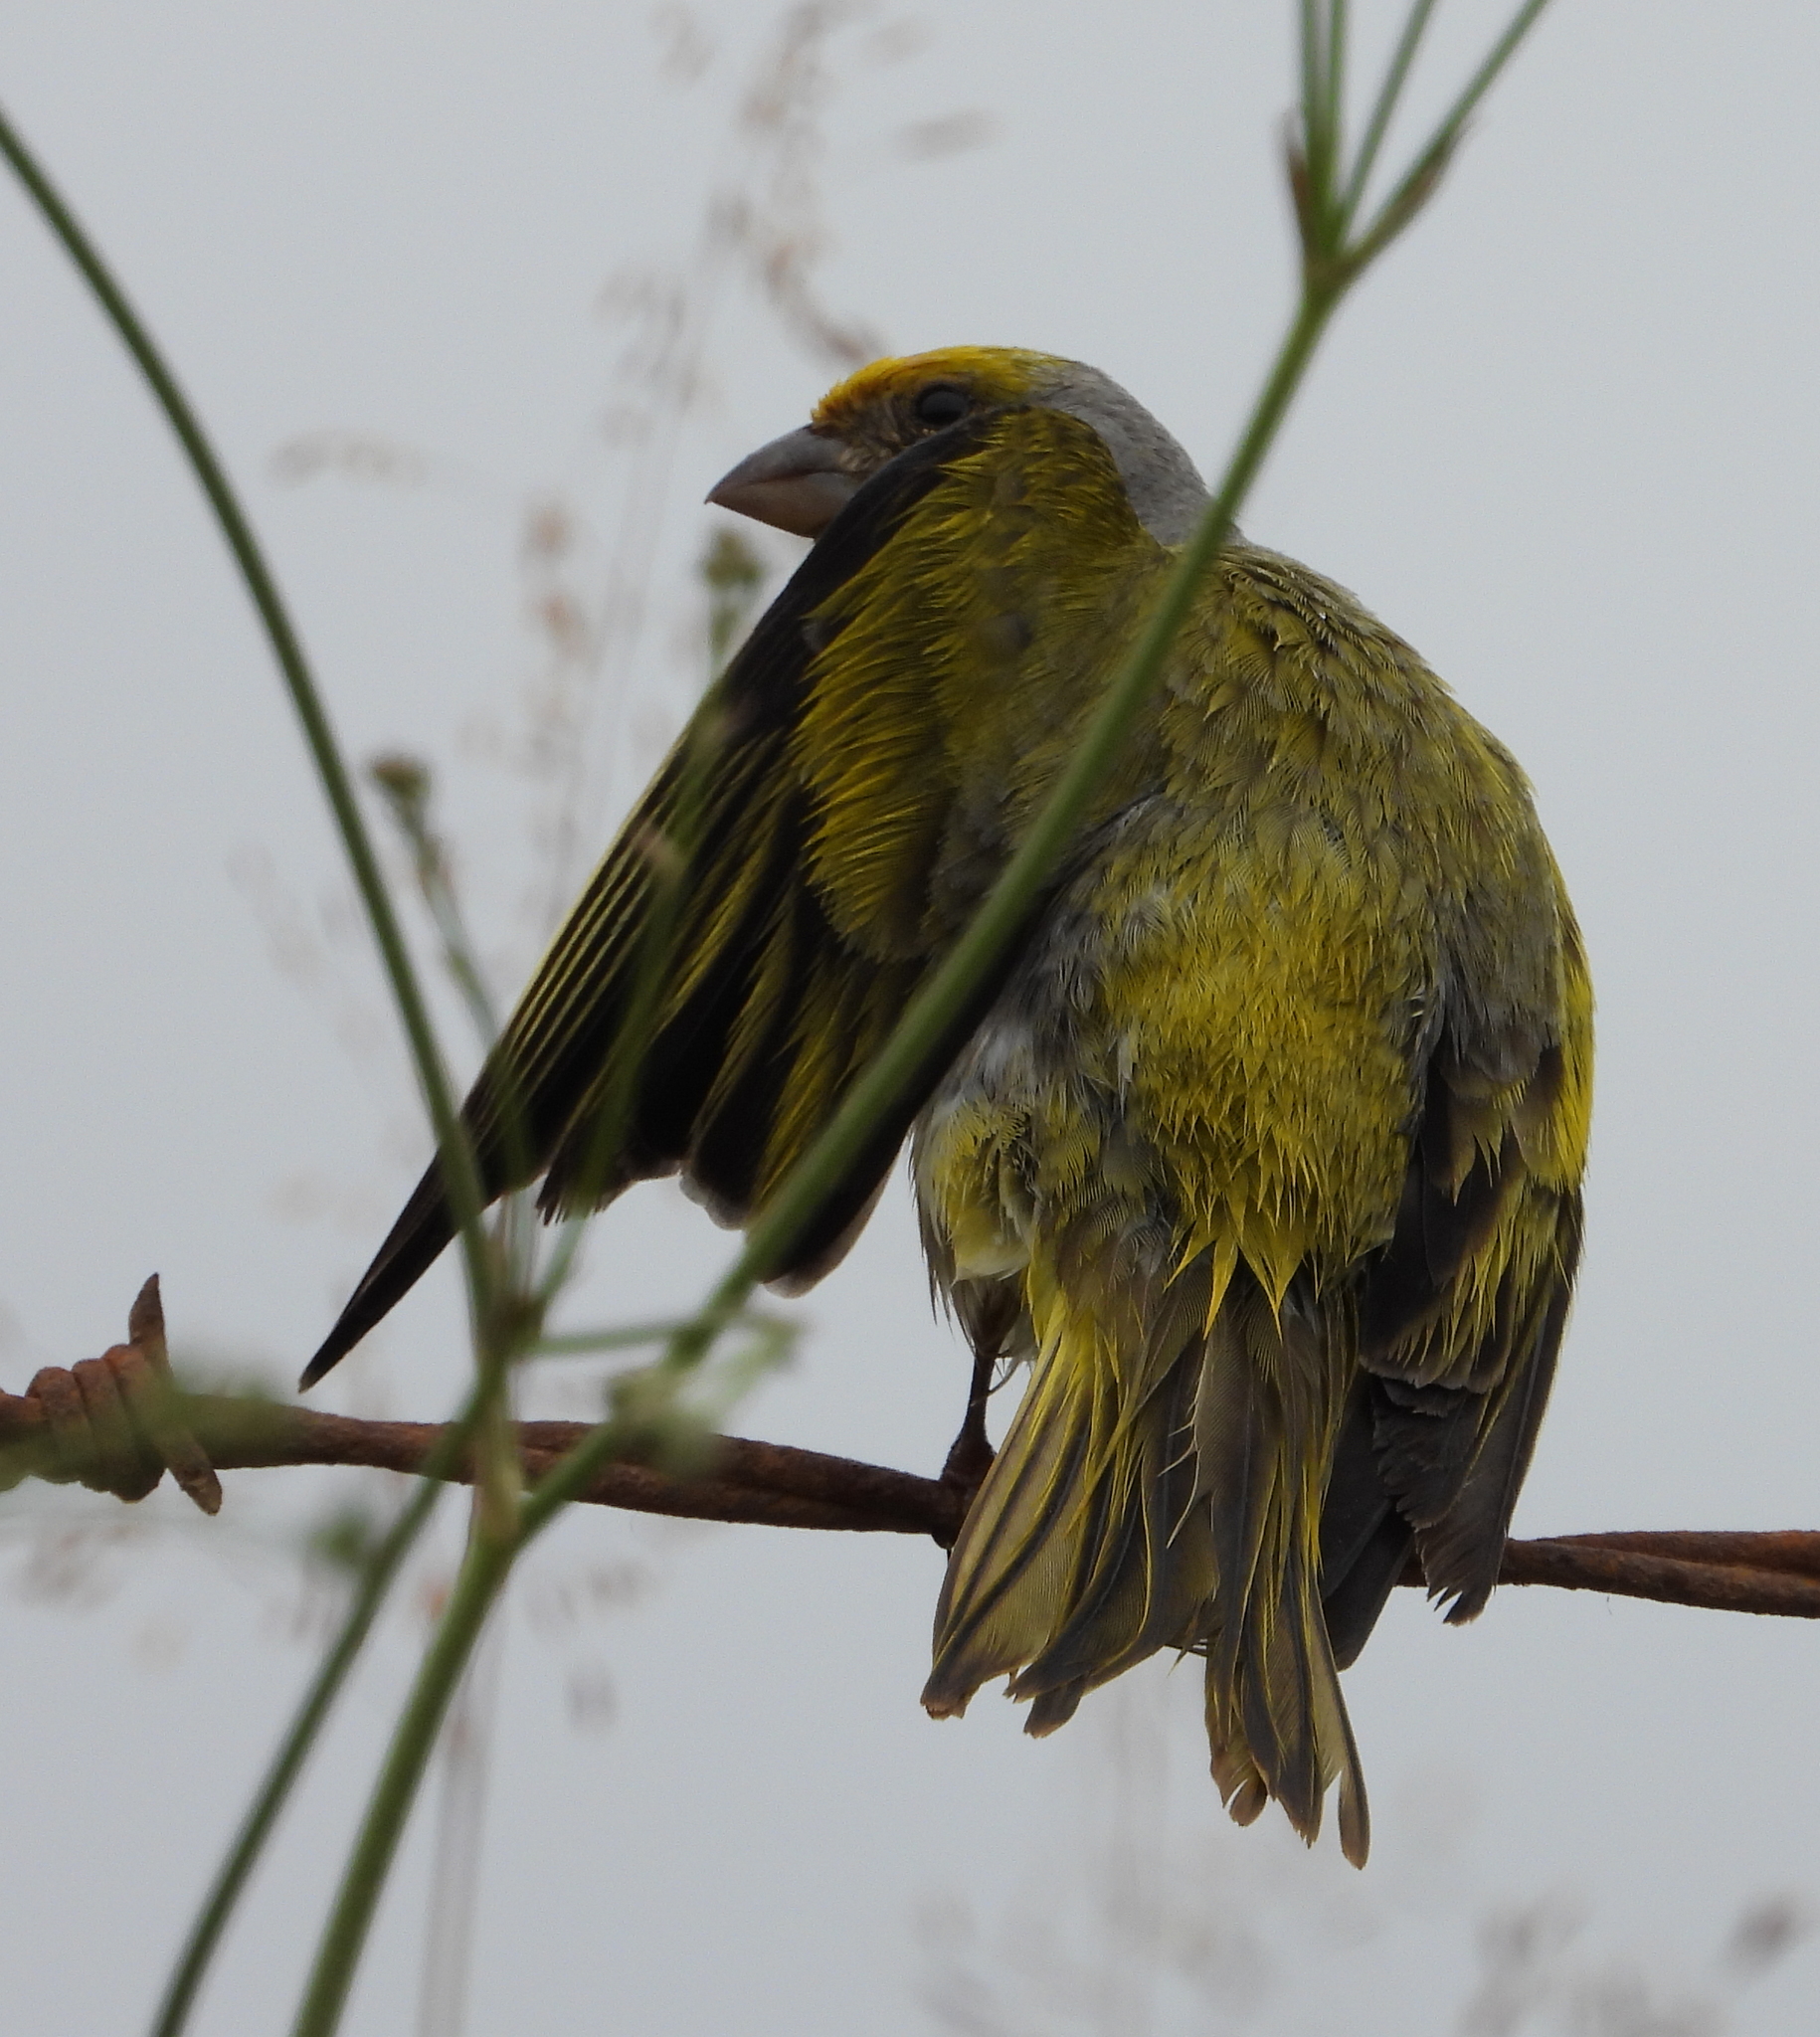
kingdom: Animalia
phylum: Chordata
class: Aves
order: Passeriformes
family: Fringillidae
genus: Serinus
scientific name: Serinus canicollis
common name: Cape canary
